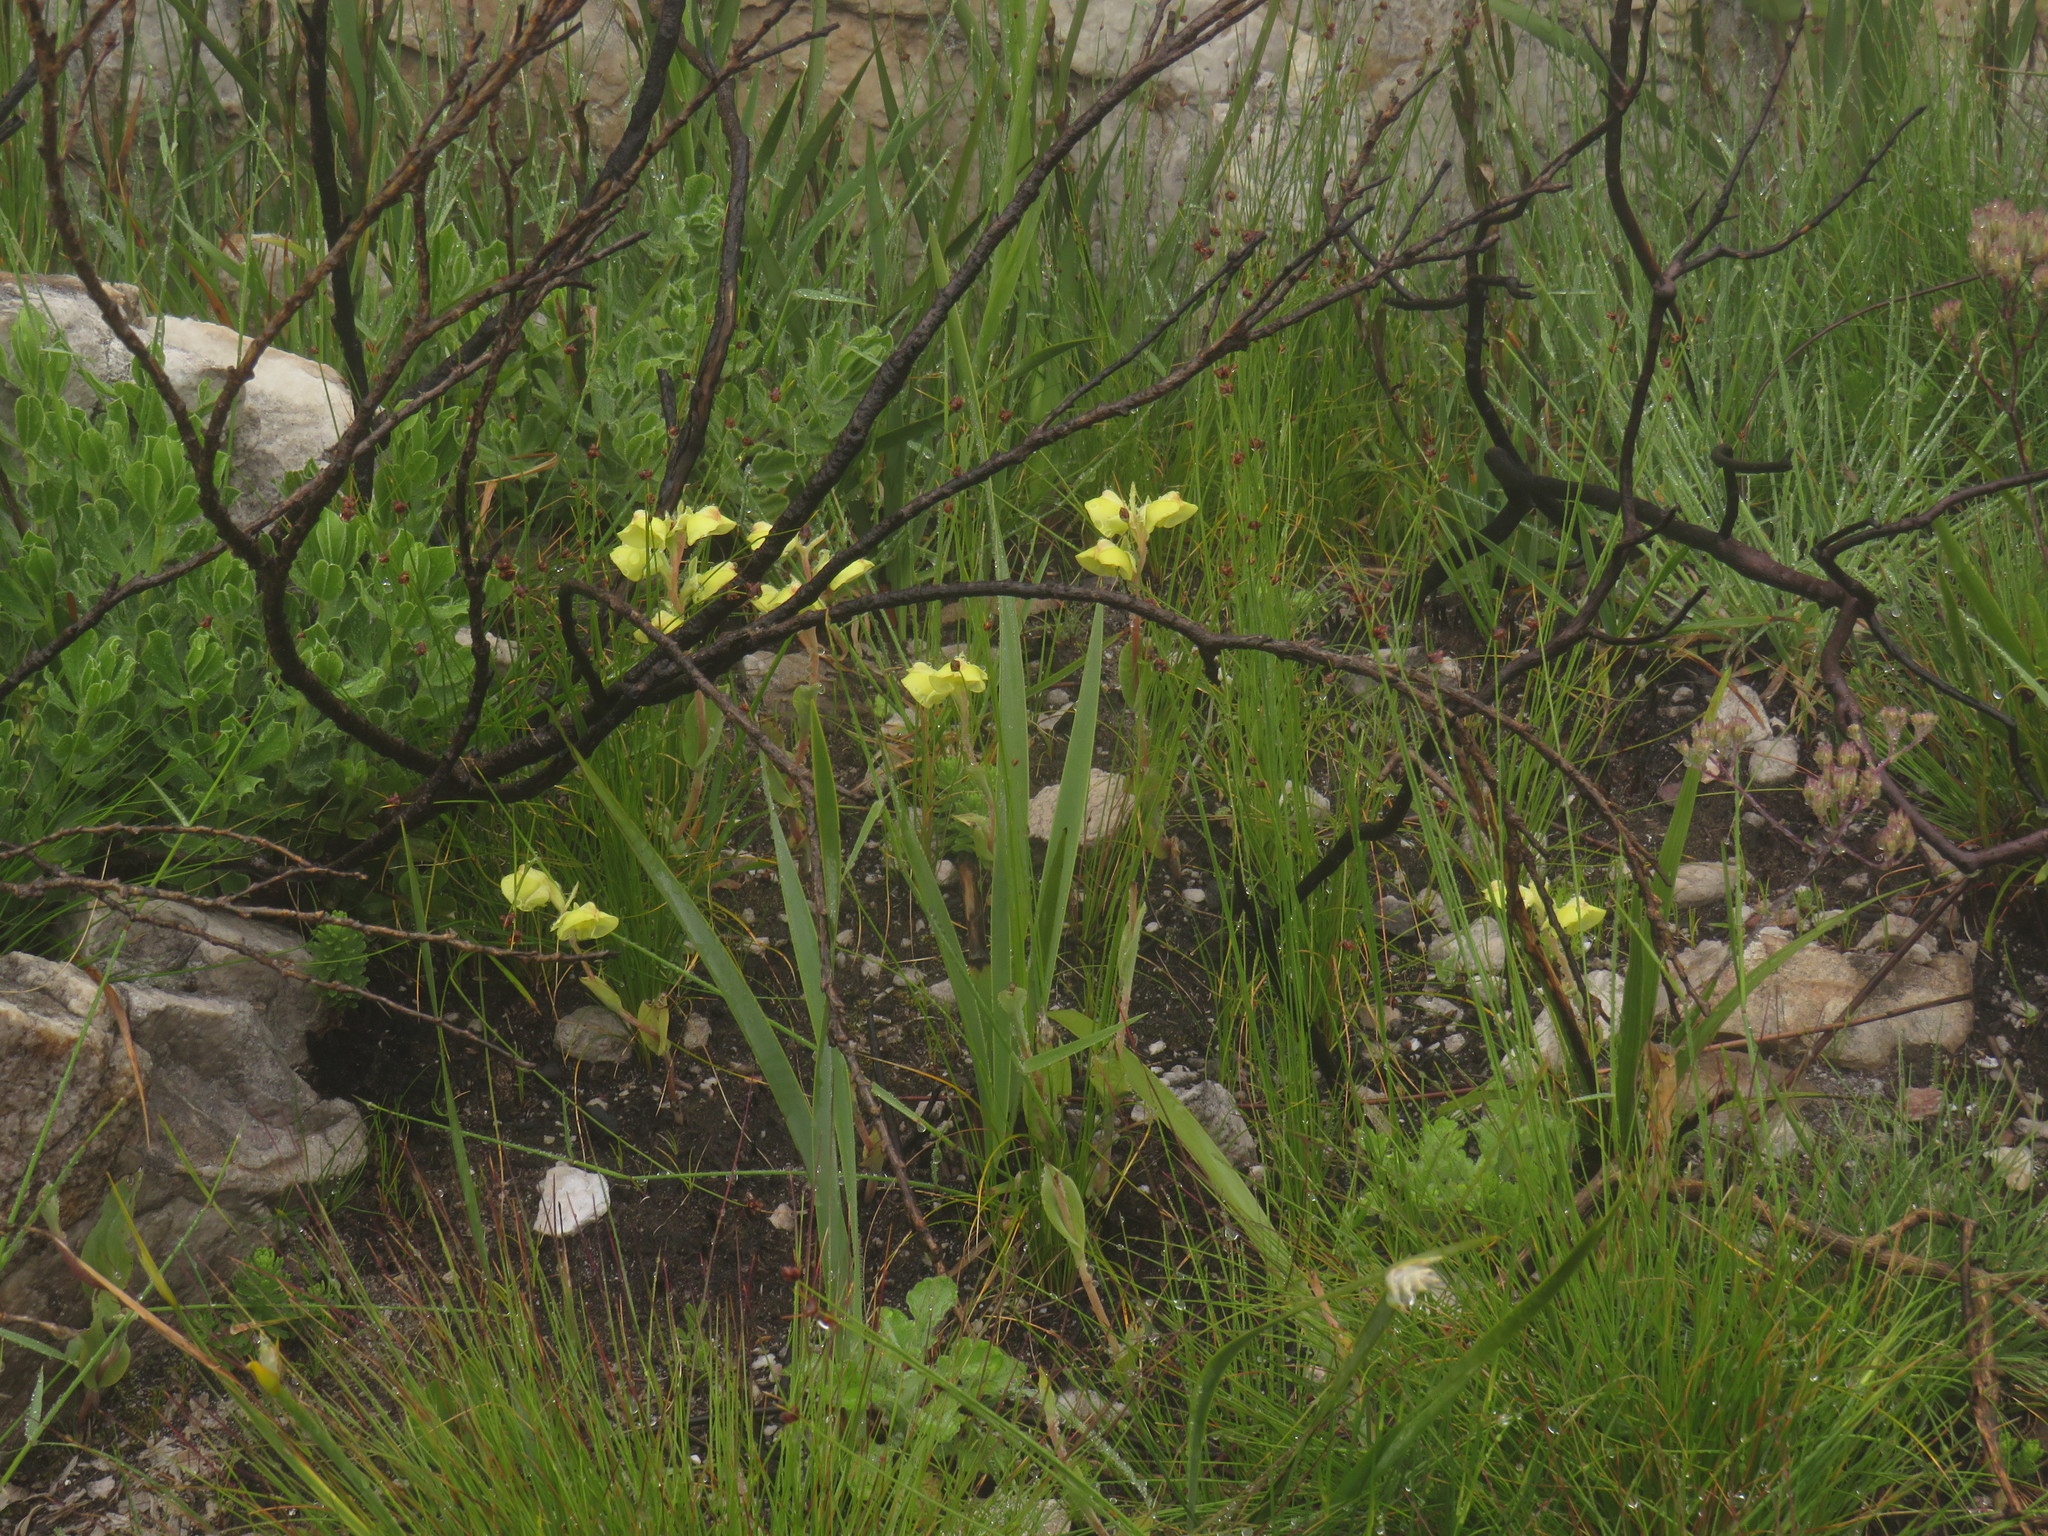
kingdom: Plantae
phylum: Tracheophyta
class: Liliopsida
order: Asparagales
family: Orchidaceae
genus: Pterygodium
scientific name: Pterygodium catholicum
